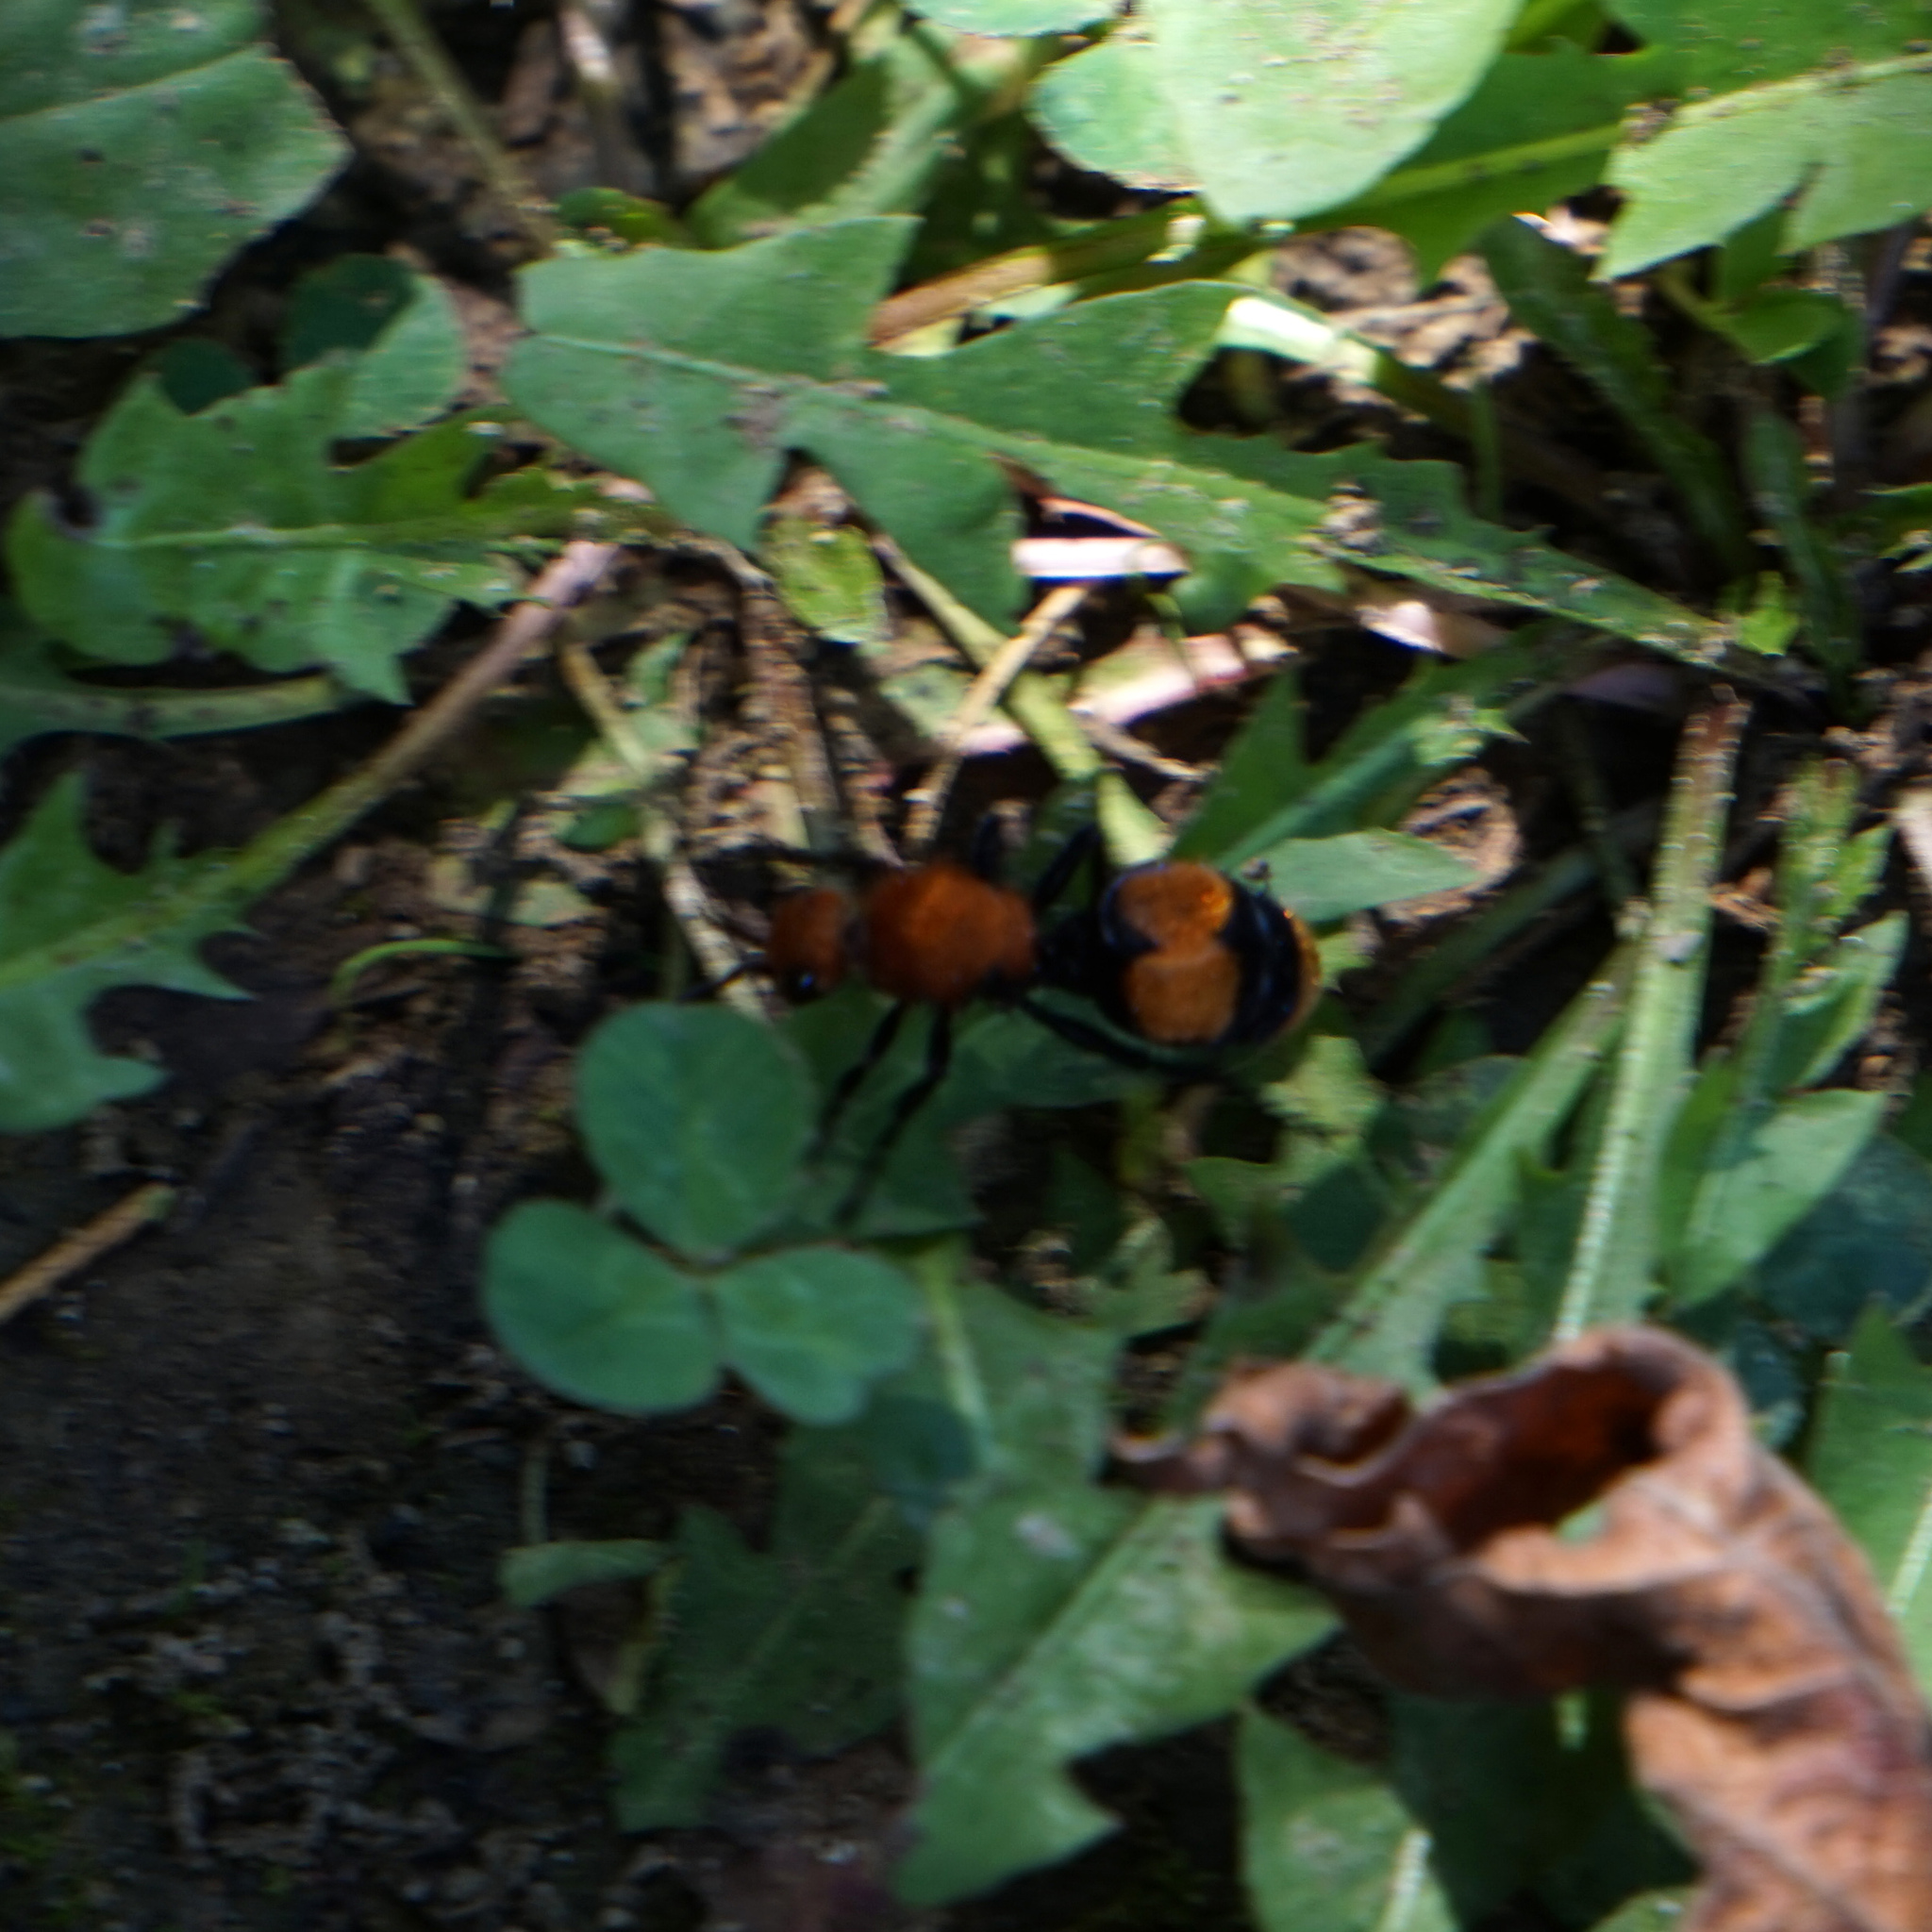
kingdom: Animalia
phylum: Arthropoda
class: Insecta
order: Hymenoptera
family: Mutillidae
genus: Dasymutilla
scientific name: Dasymutilla occidentalis
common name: Common eastern velvet ant
